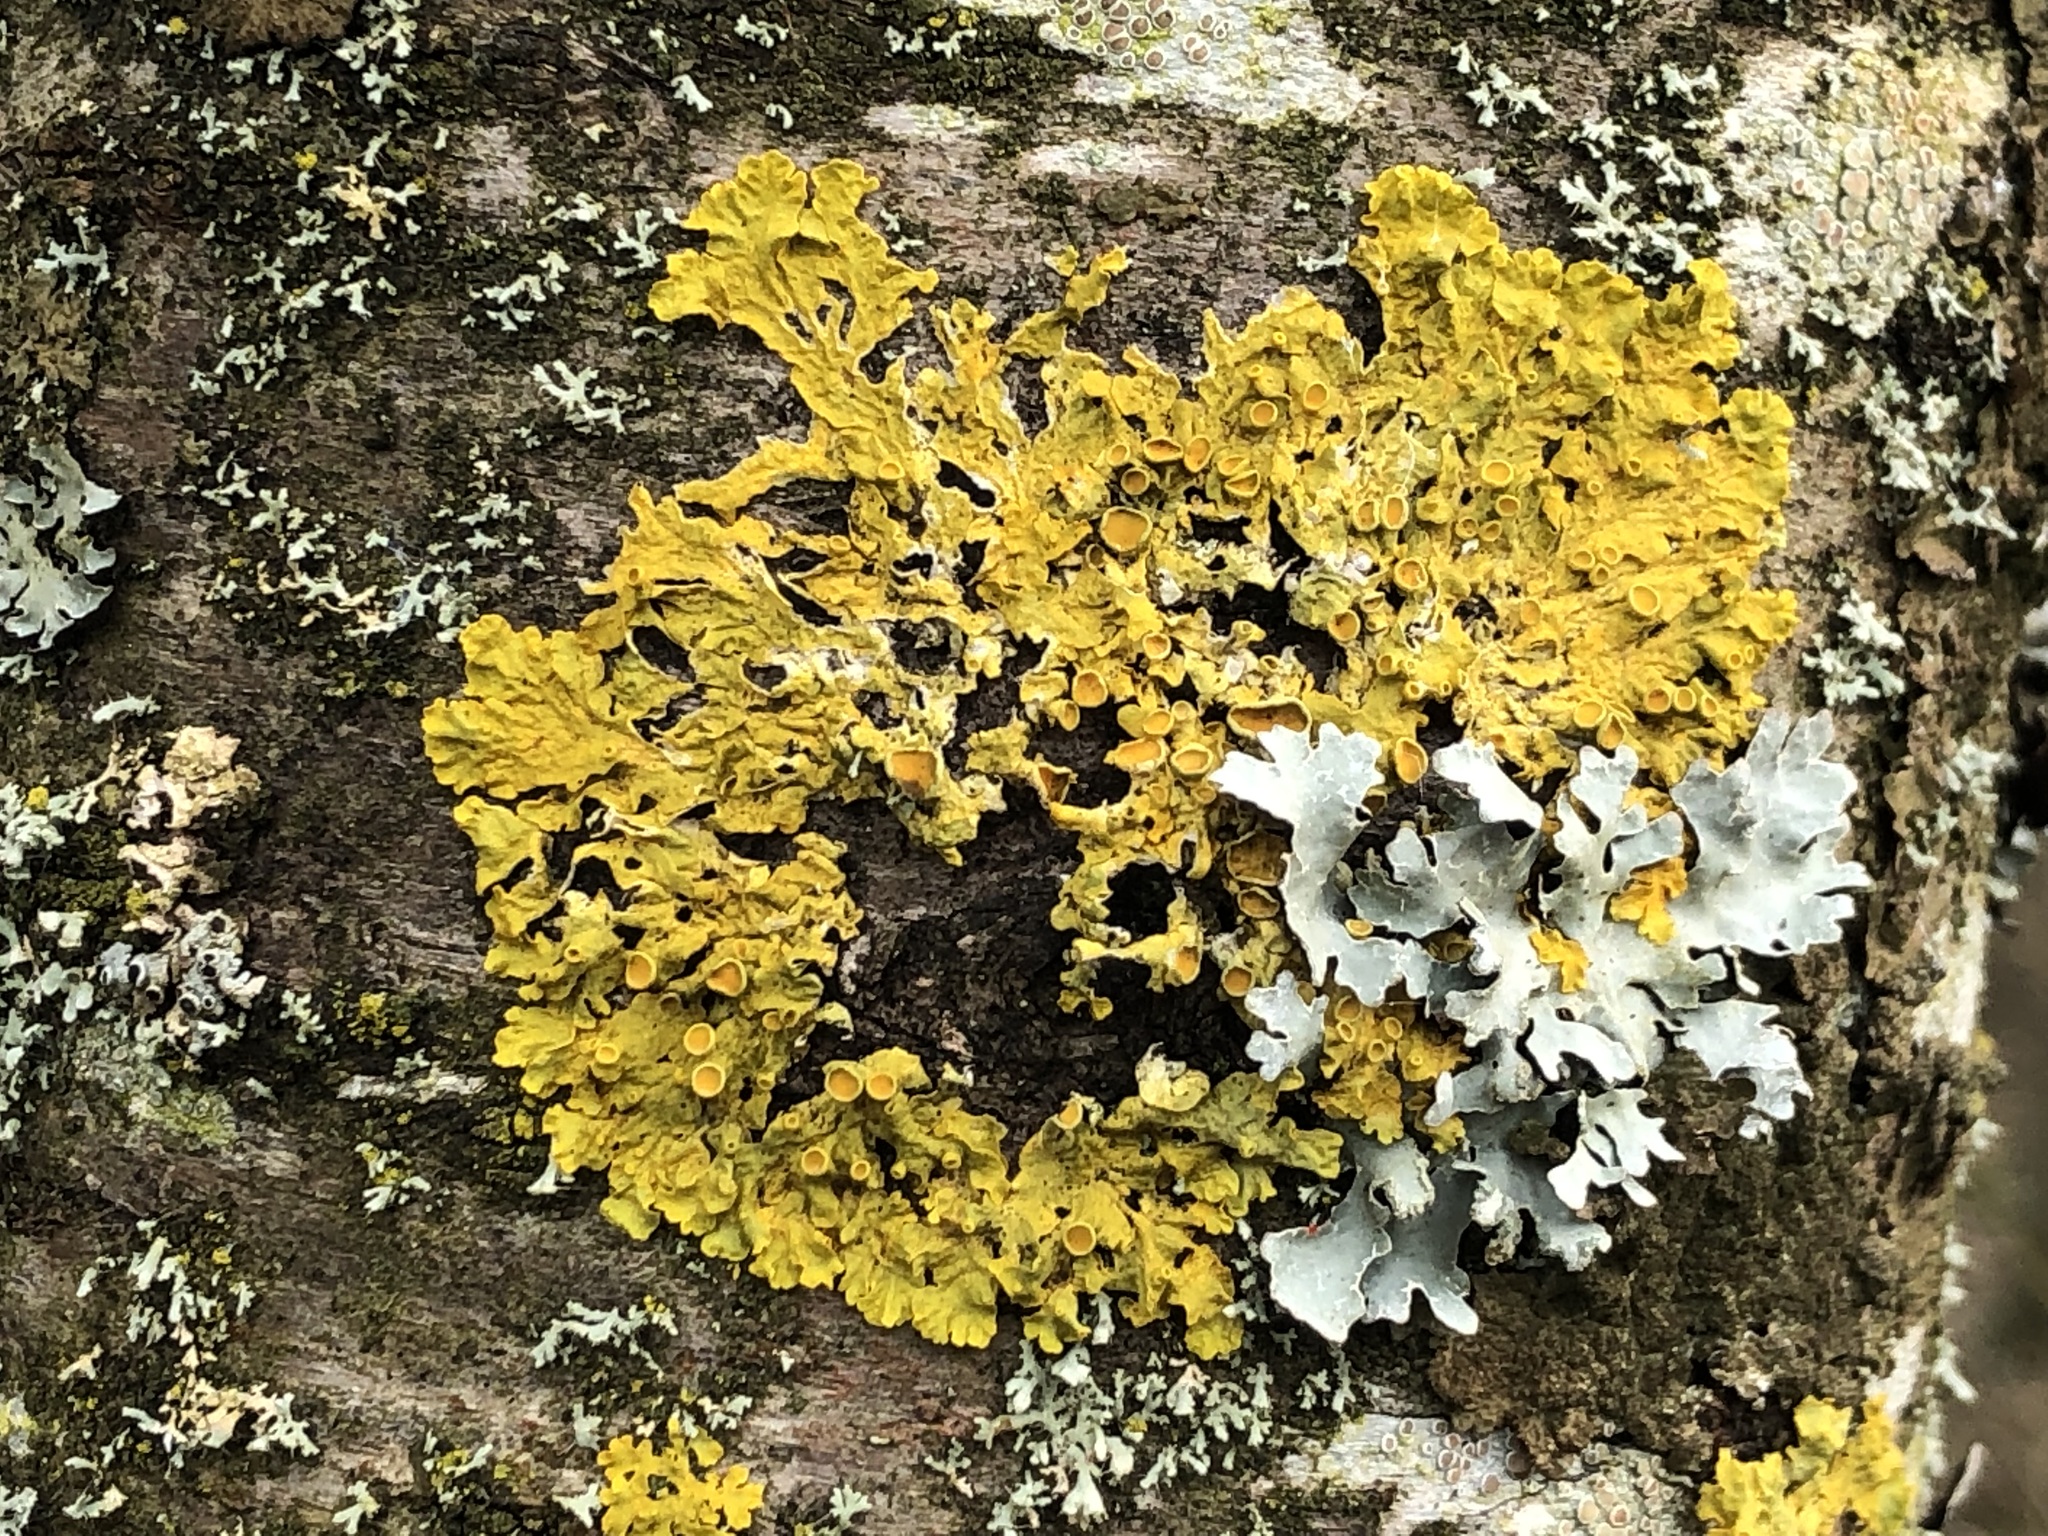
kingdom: Fungi
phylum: Ascomycota
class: Lecanoromycetes
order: Teloschistales
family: Teloschistaceae
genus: Xanthoria
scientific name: Xanthoria parietina
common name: Common orange lichen
